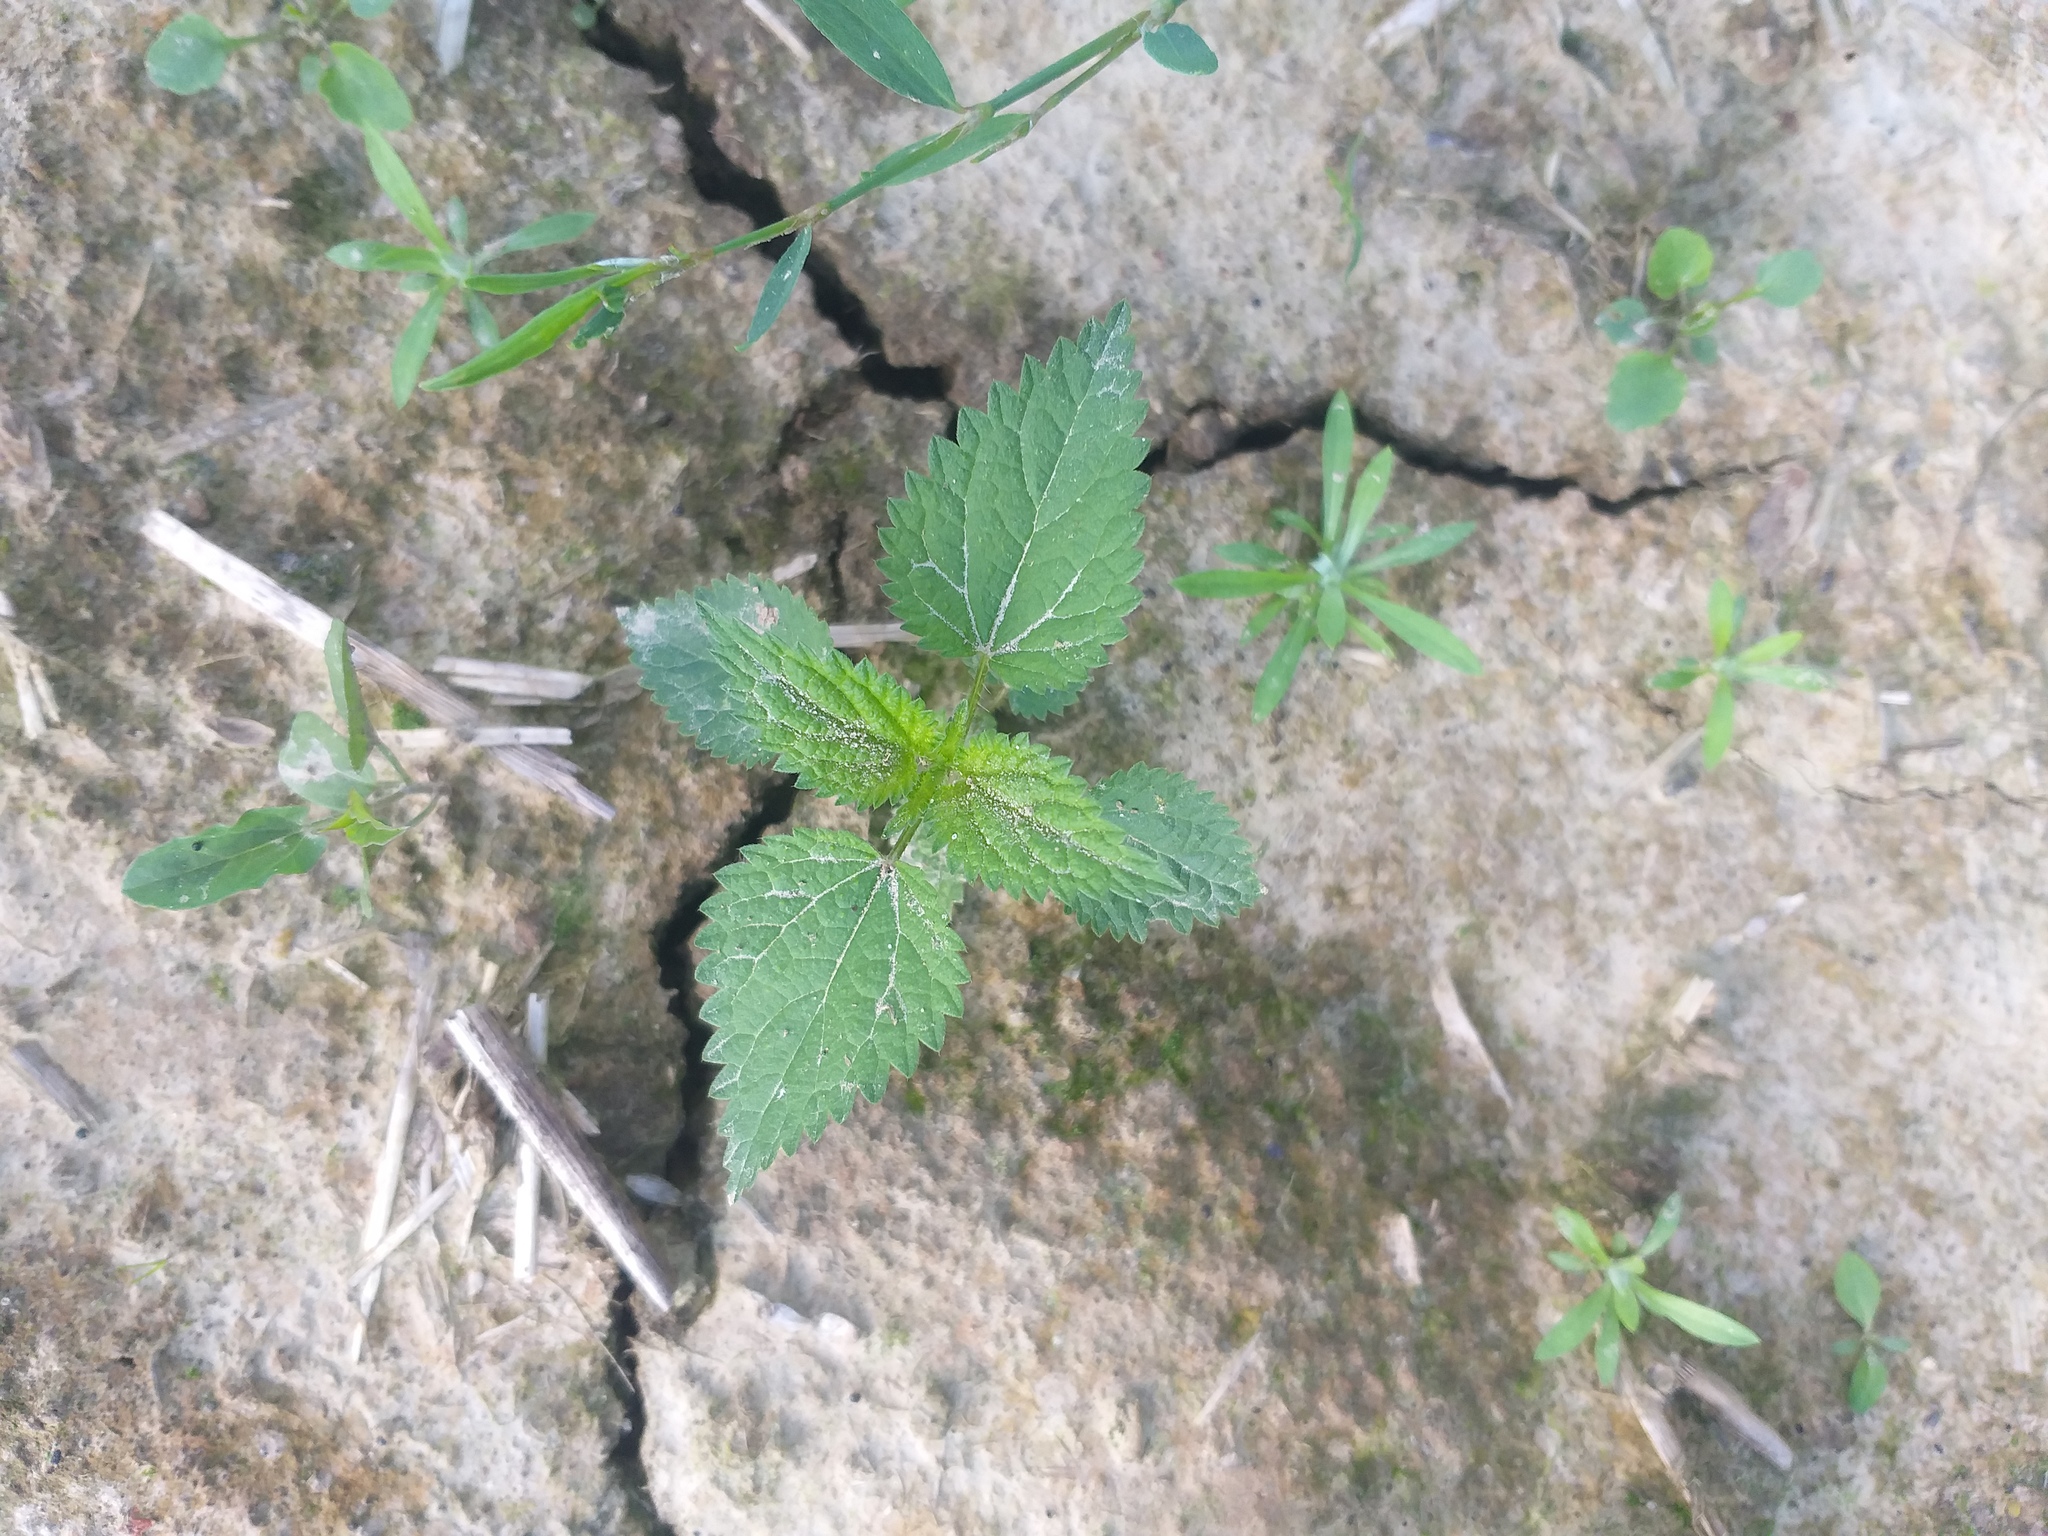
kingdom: Plantae
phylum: Tracheophyta
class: Magnoliopsida
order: Rosales
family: Urticaceae
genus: Urtica
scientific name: Urtica dioica
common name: Common nettle
